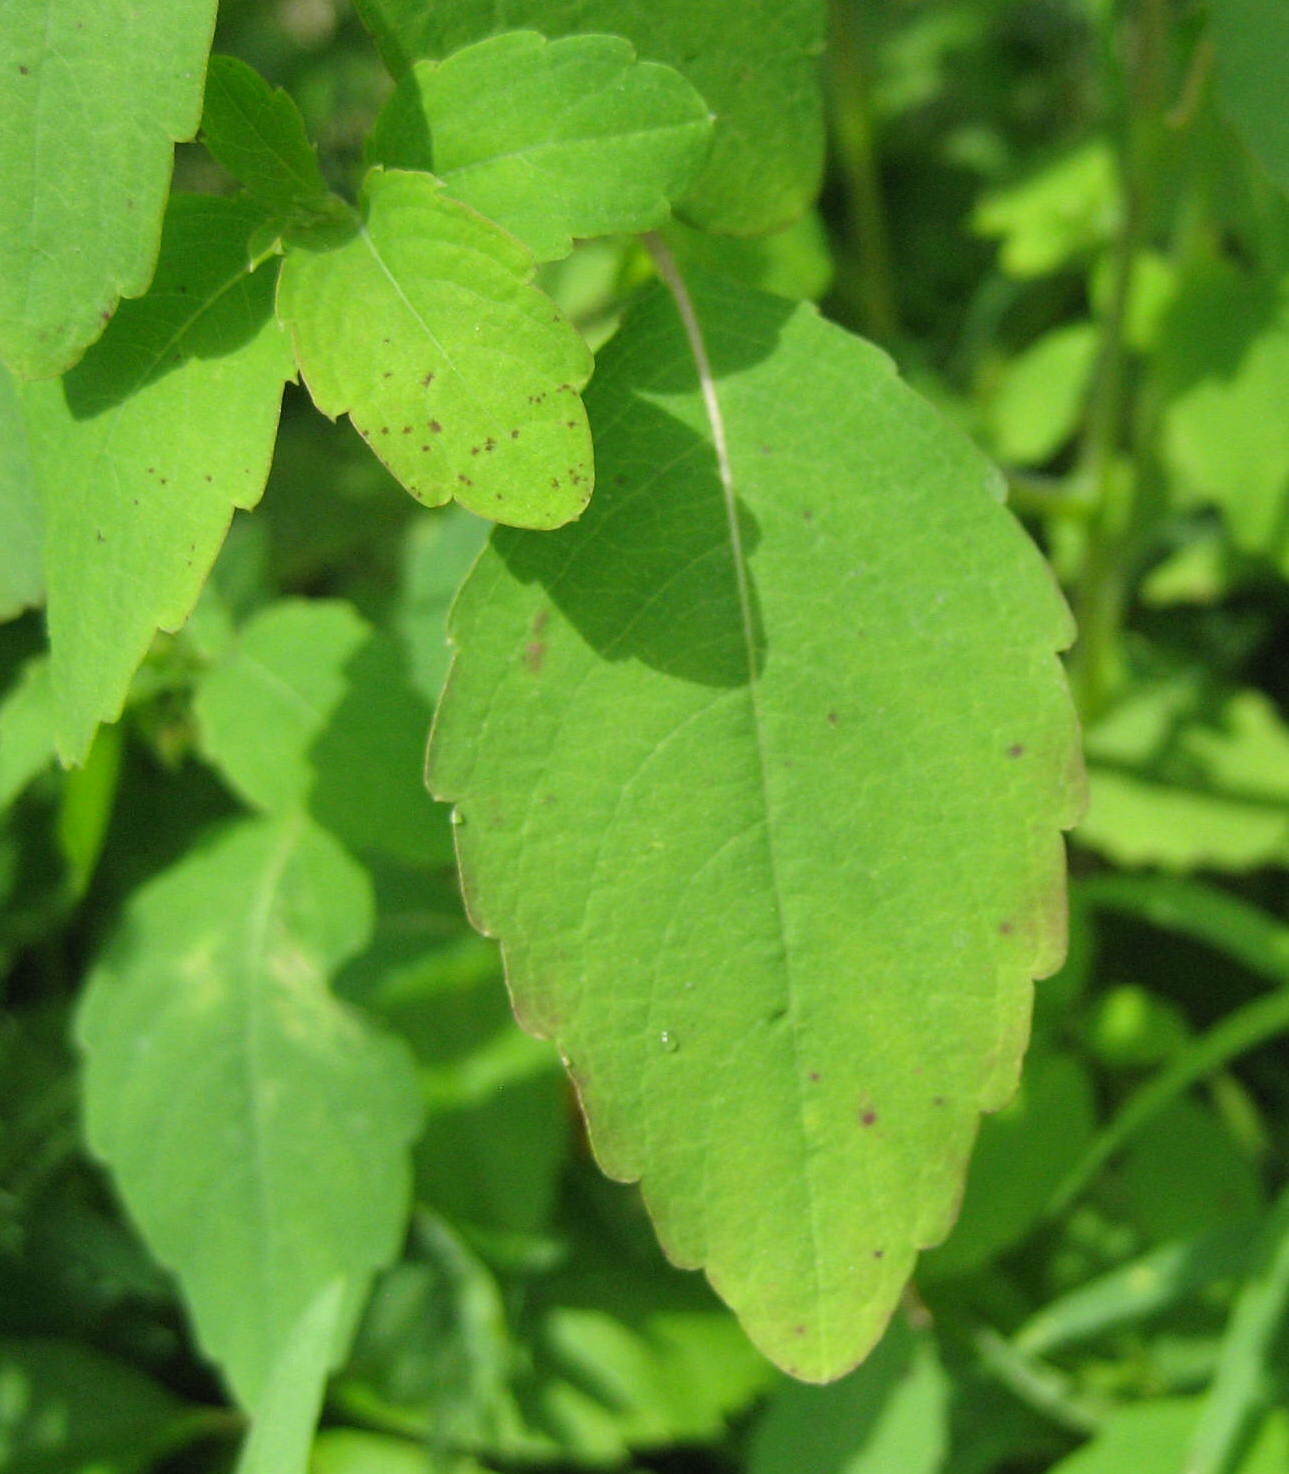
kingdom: Plantae
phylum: Tracheophyta
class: Magnoliopsida
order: Ericales
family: Balsaminaceae
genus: Impatiens
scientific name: Impatiens capensis
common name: Orange balsam
